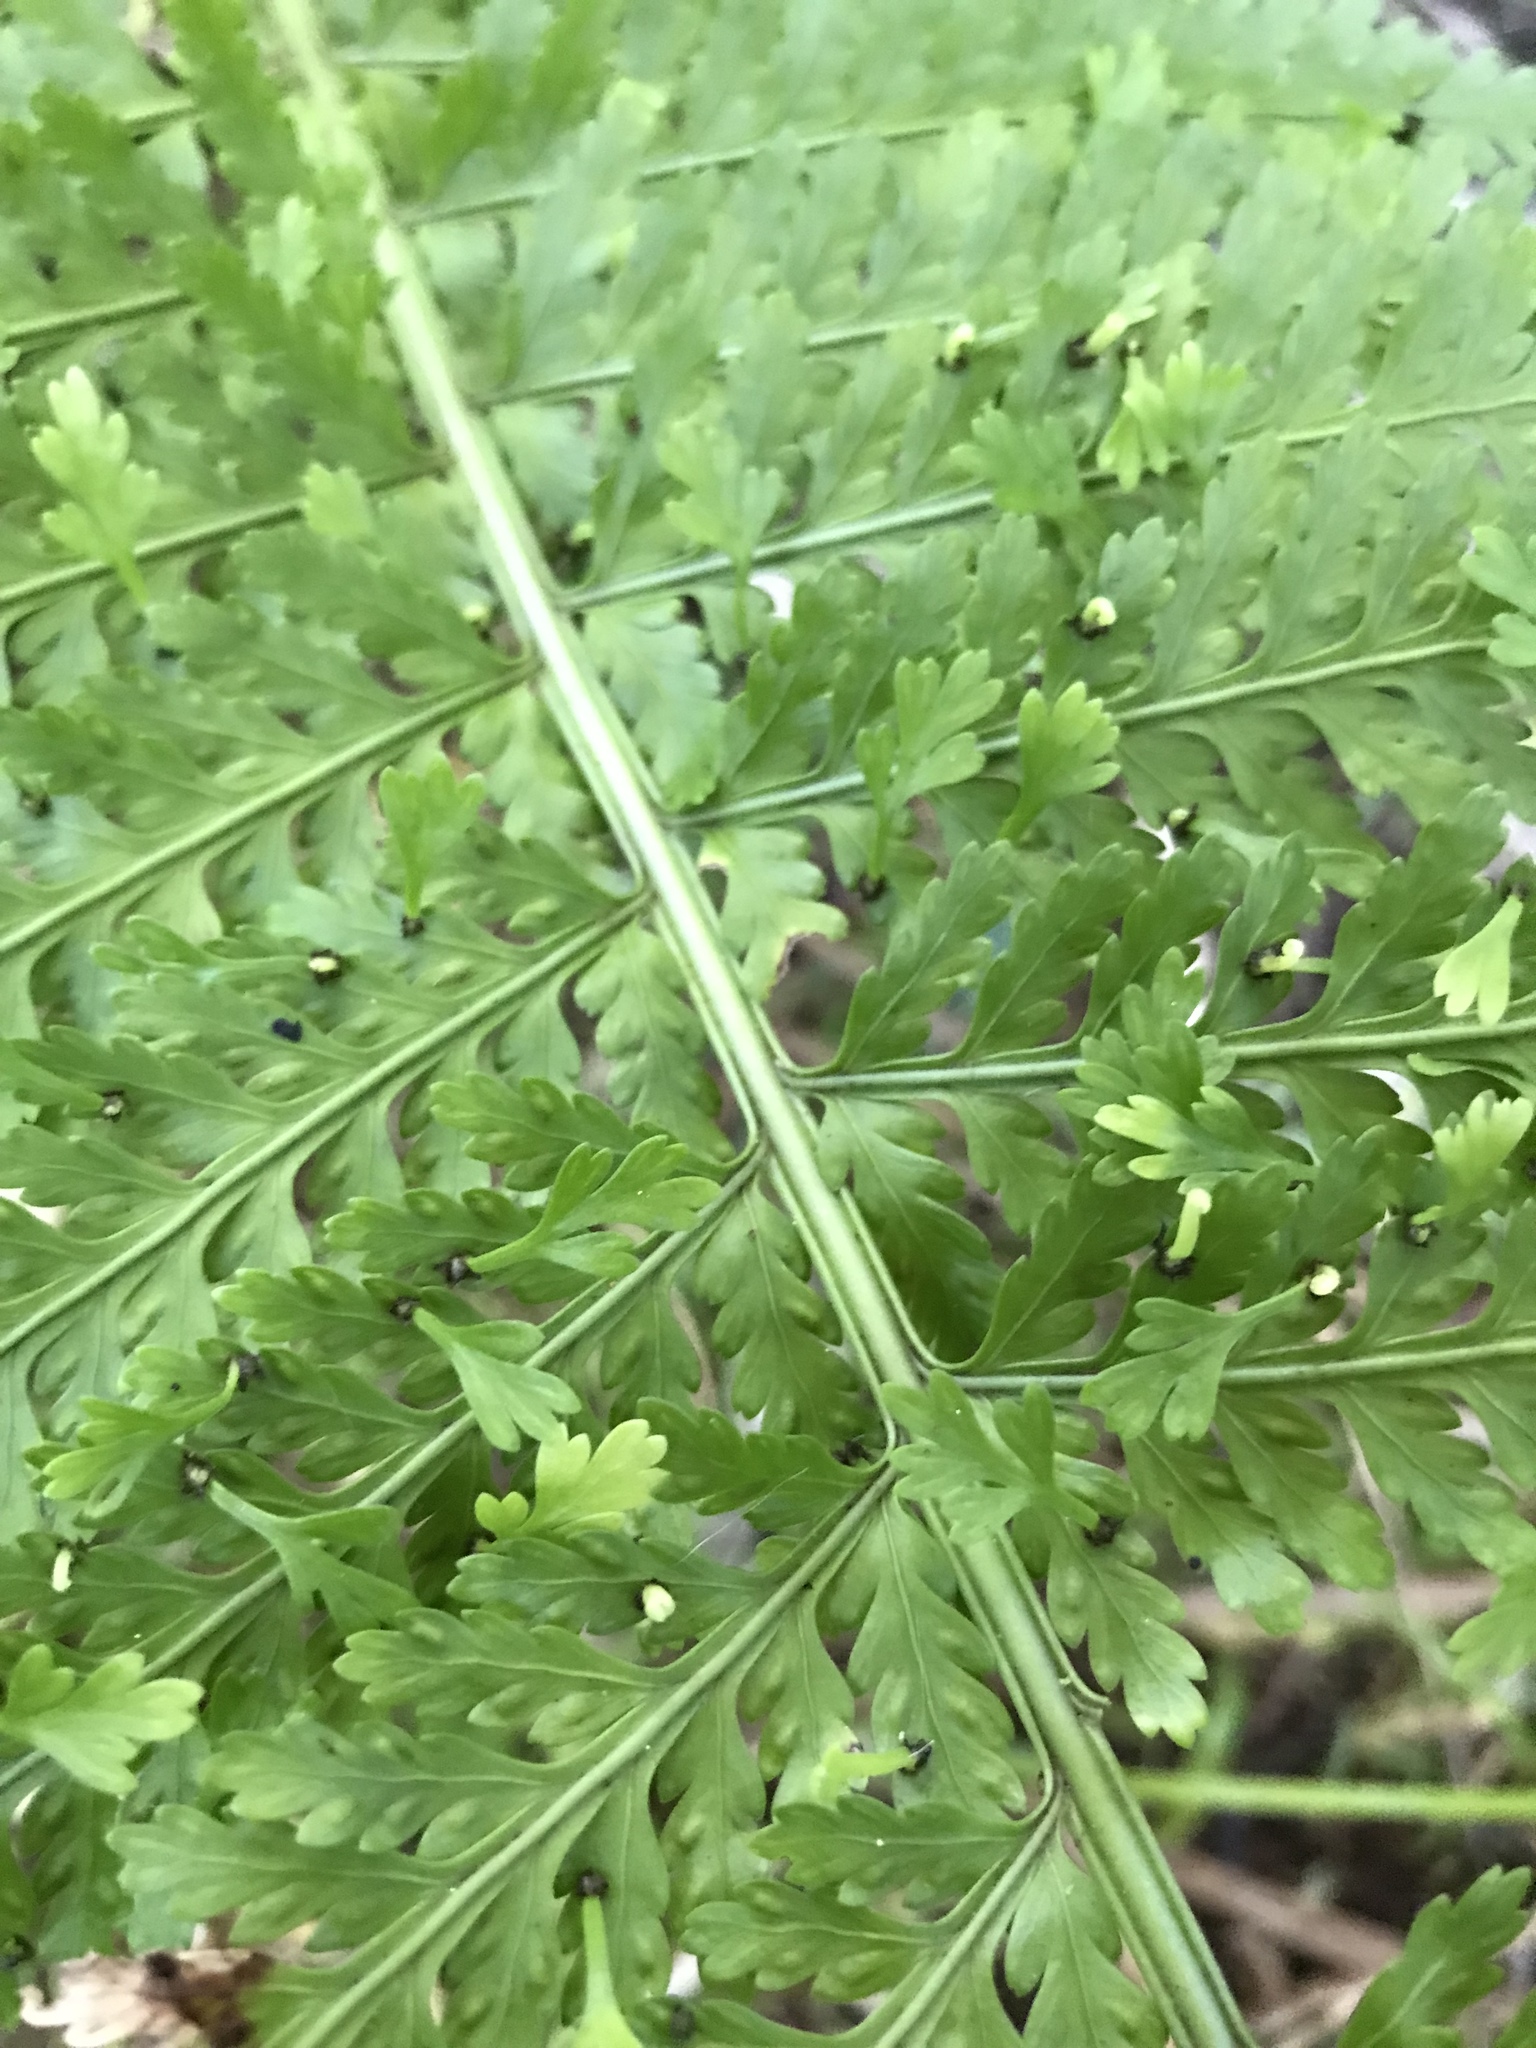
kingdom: Plantae
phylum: Tracheophyta
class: Polypodiopsida
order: Polypodiales
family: Aspleniaceae
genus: Asplenium
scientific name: Asplenium bulbiferum
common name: Mother fern
